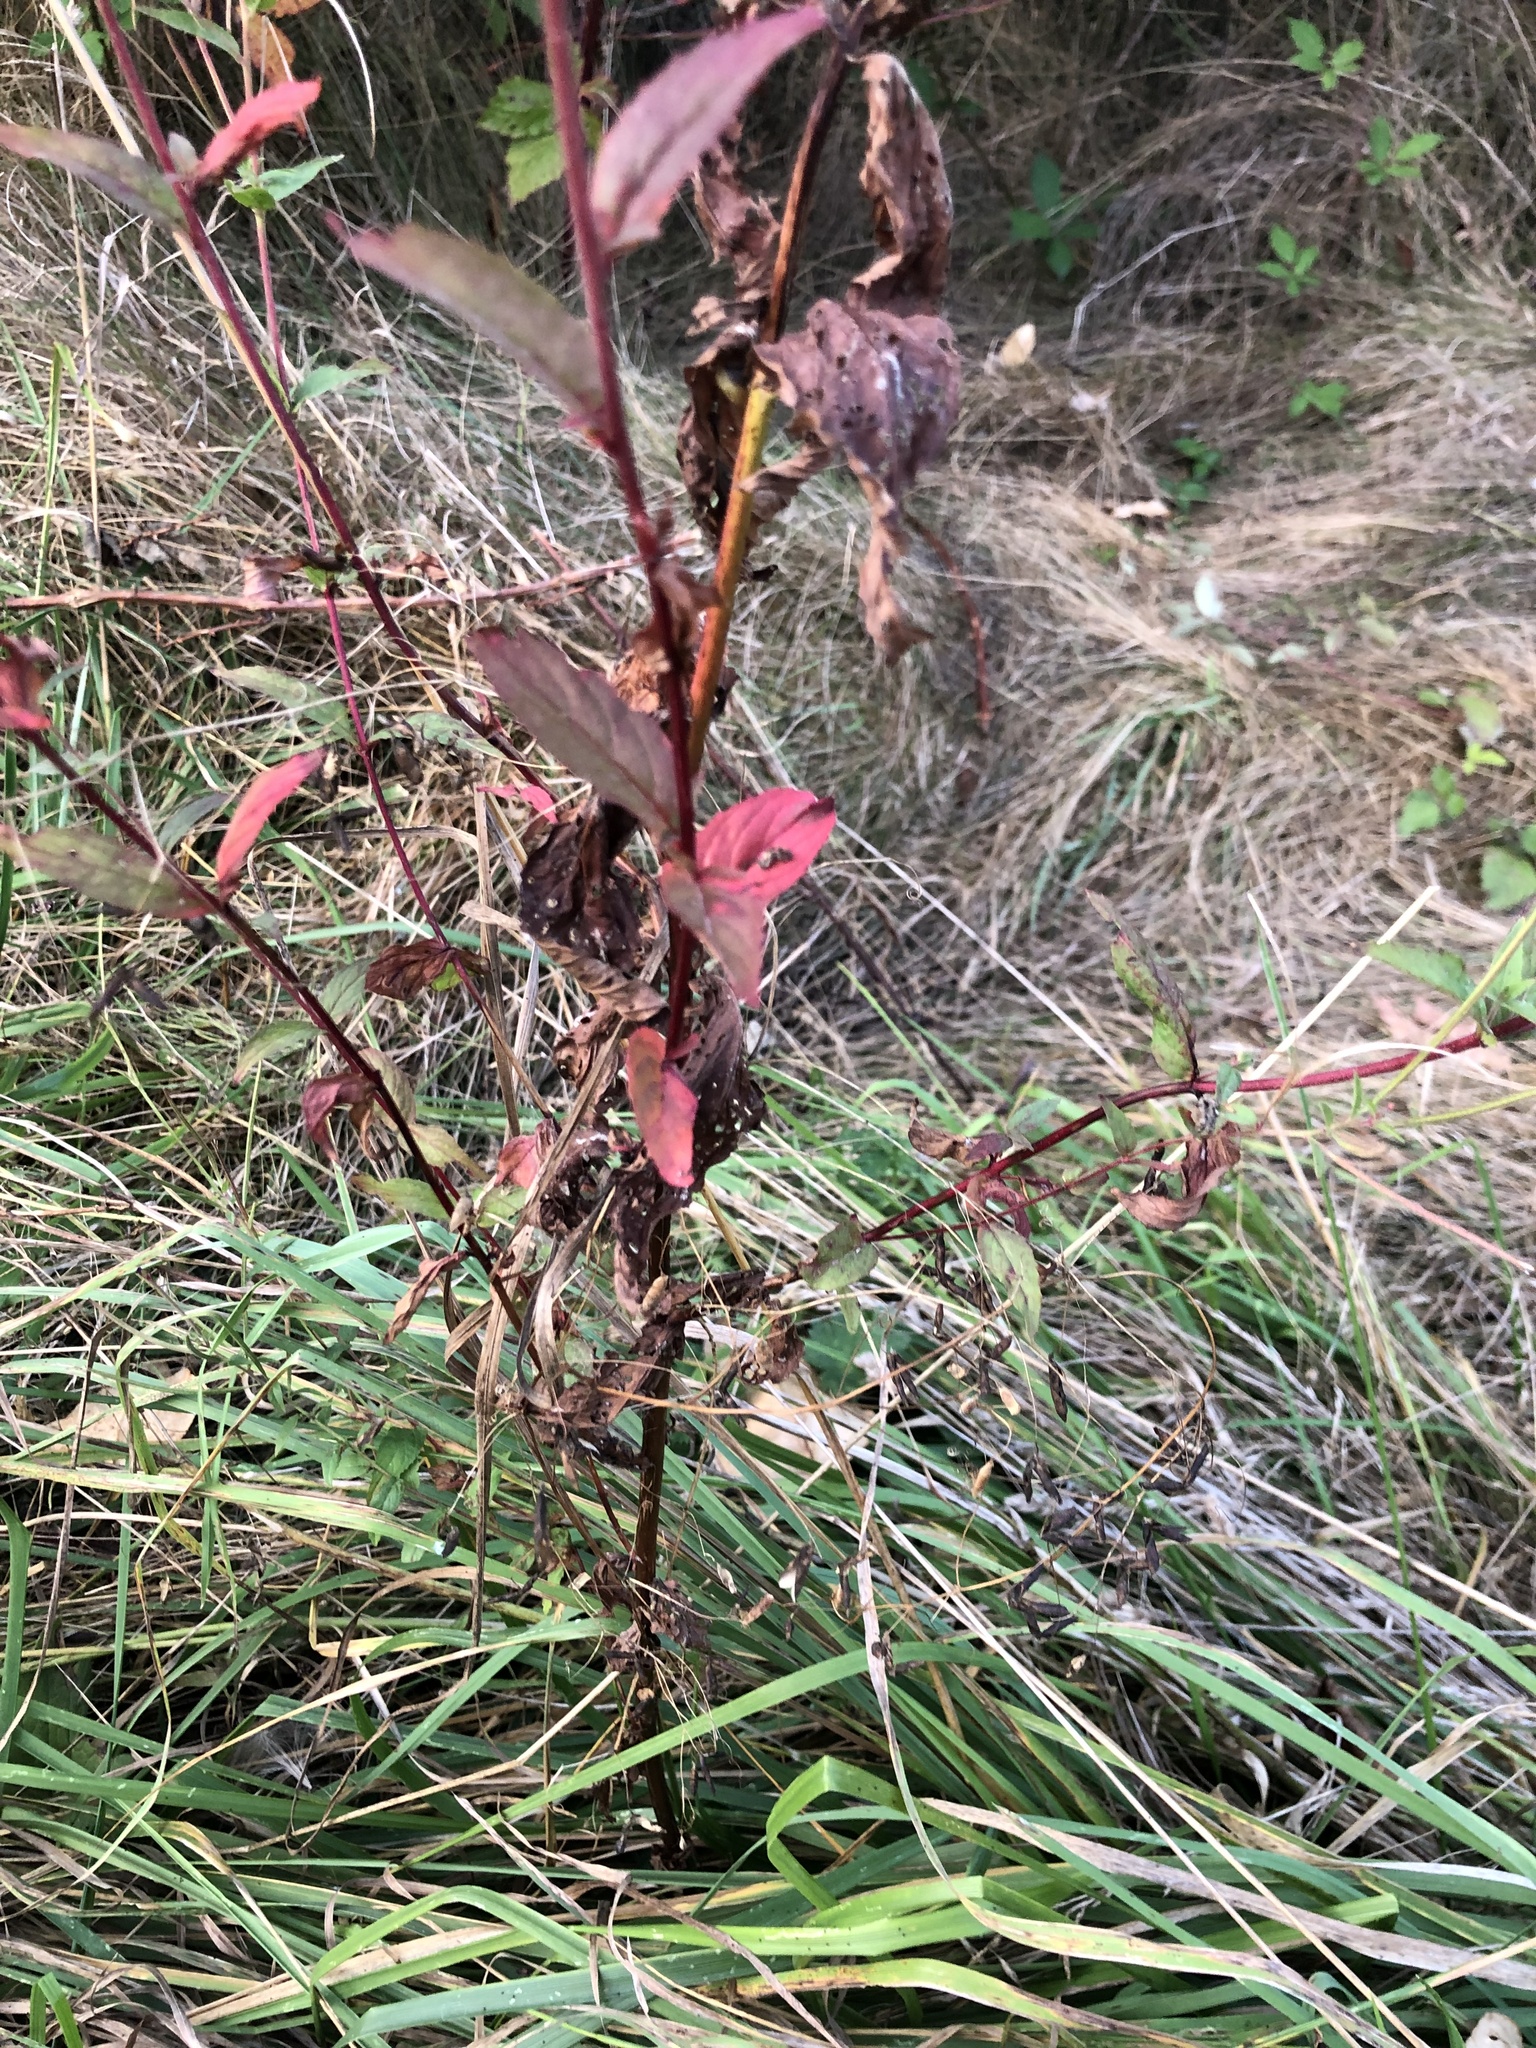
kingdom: Plantae
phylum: Tracheophyta
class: Magnoliopsida
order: Myrtales
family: Onagraceae
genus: Epilobium
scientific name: Epilobium ciliatum
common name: American willowherb
